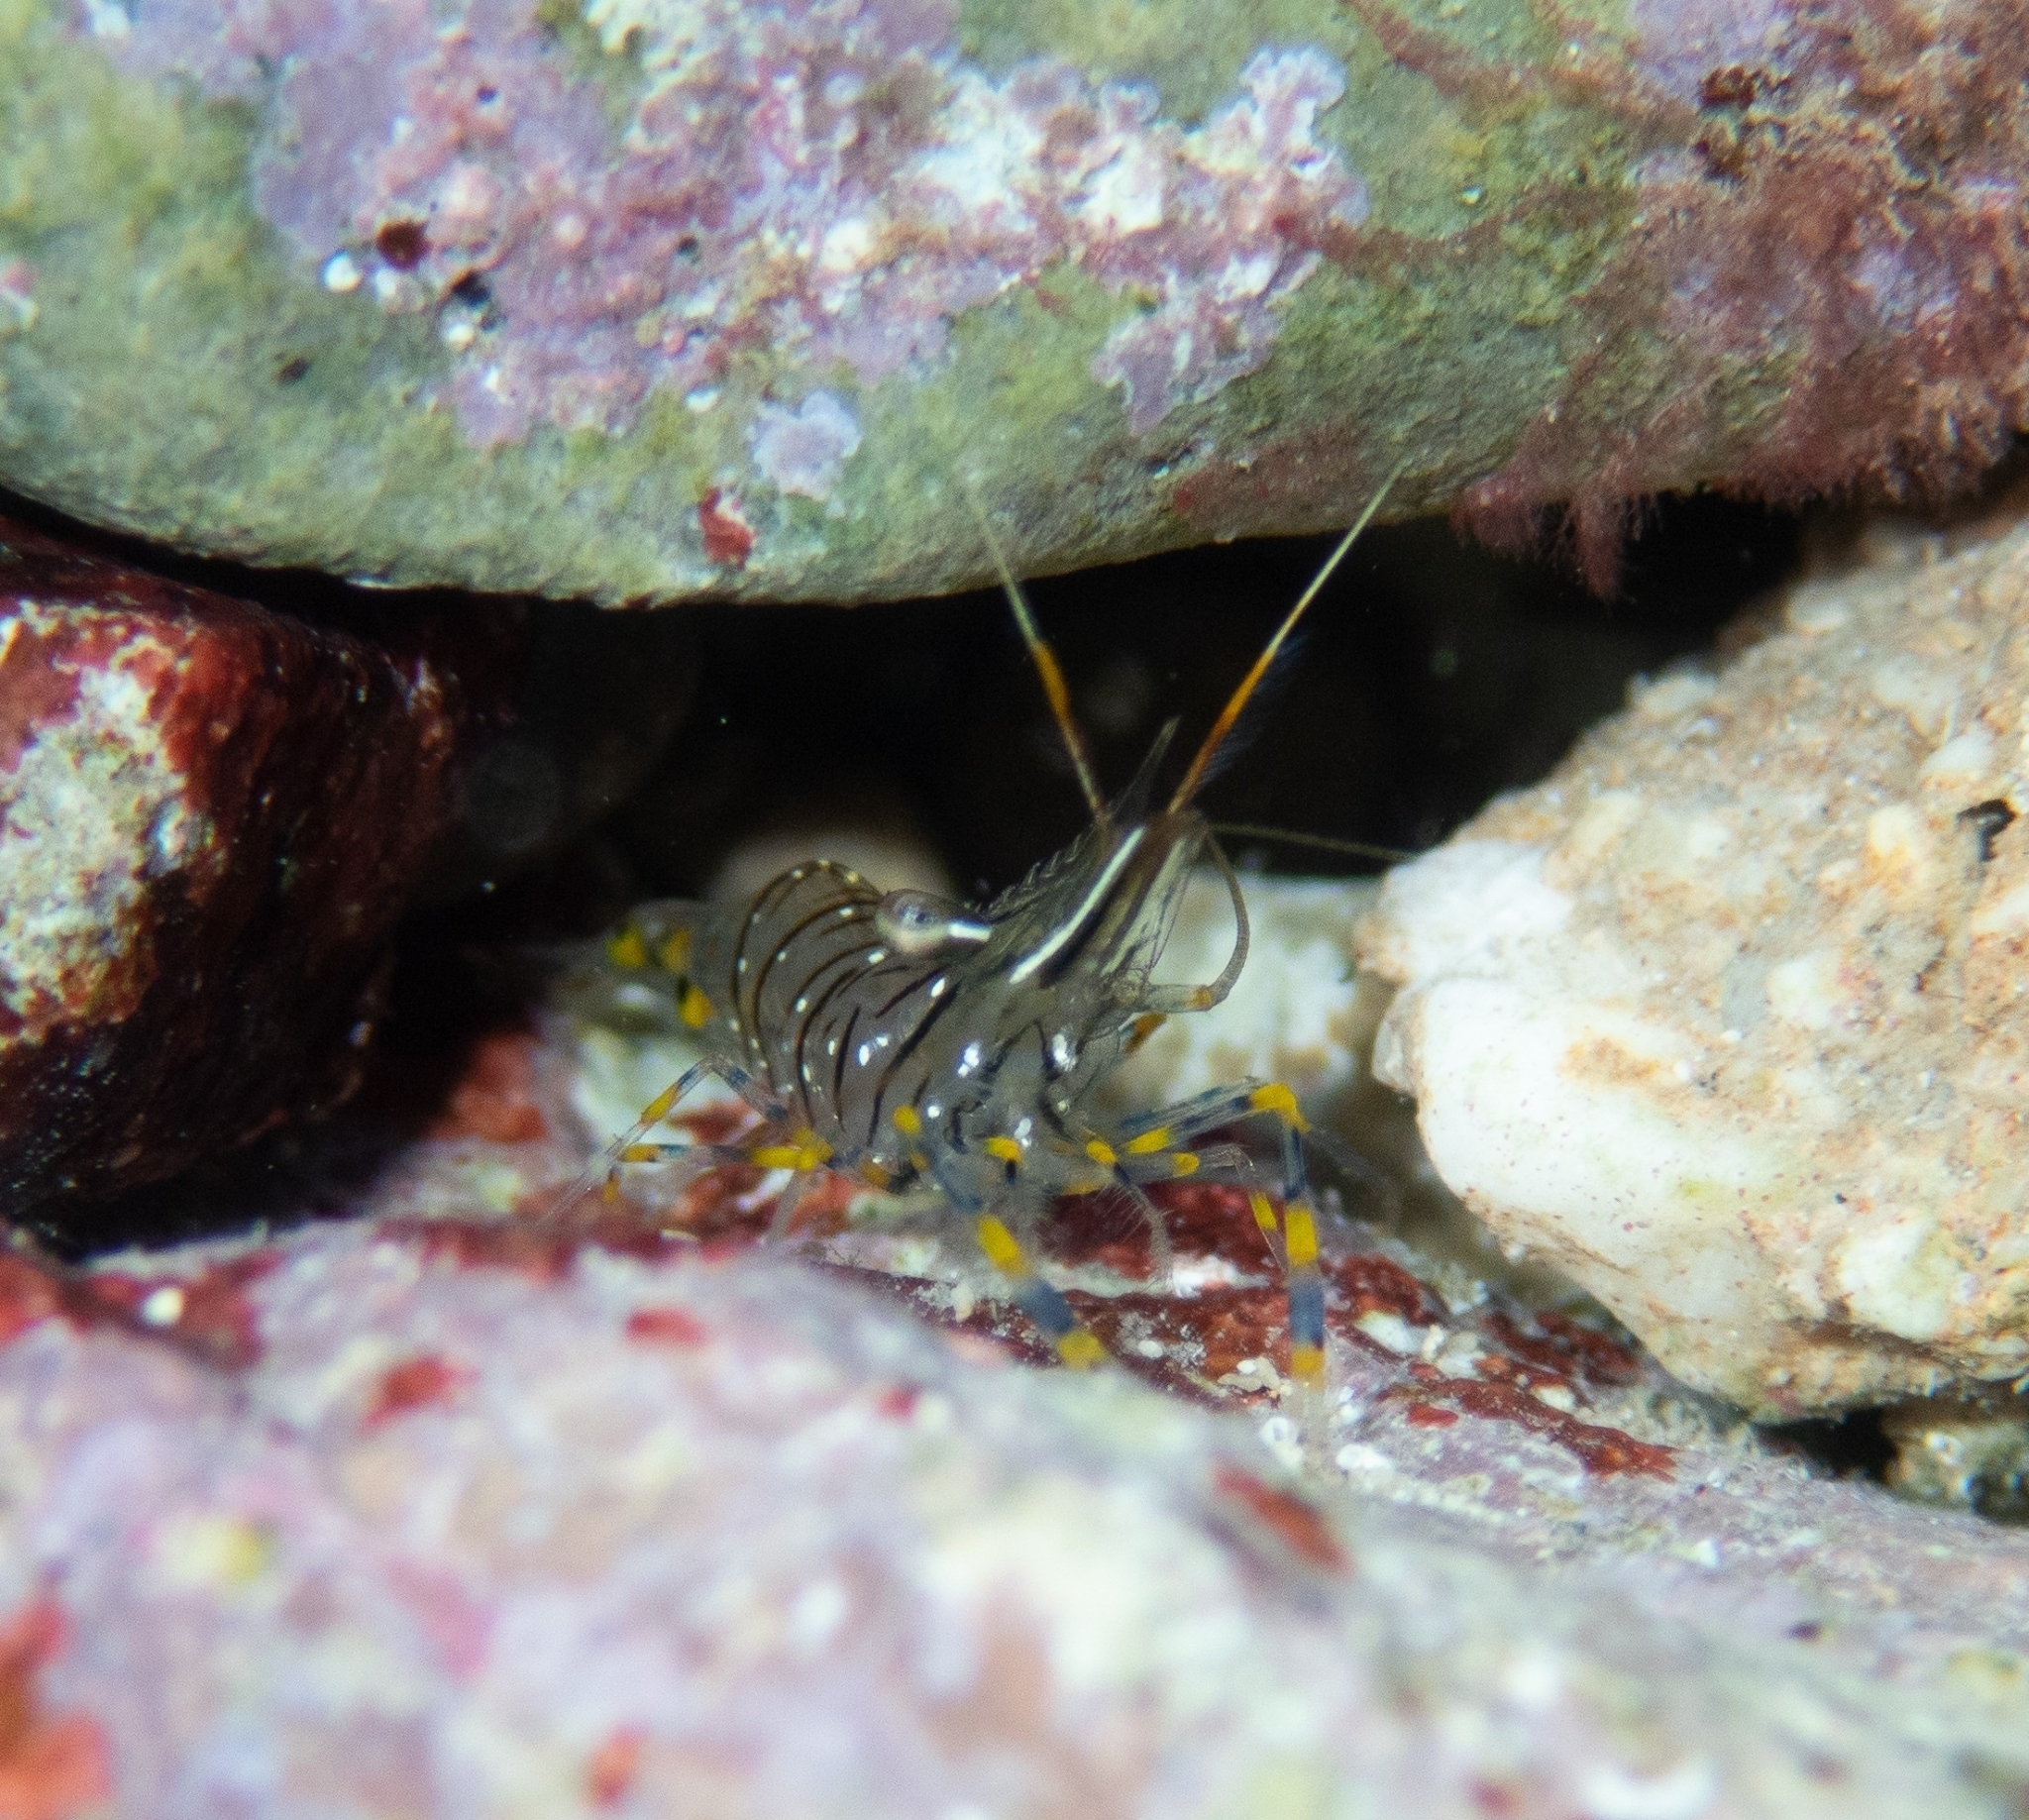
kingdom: Animalia
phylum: Arthropoda
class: Malacostraca
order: Decapoda
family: Palaemonidae
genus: Palaemon
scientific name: Palaemon elegans
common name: Grass prawm
